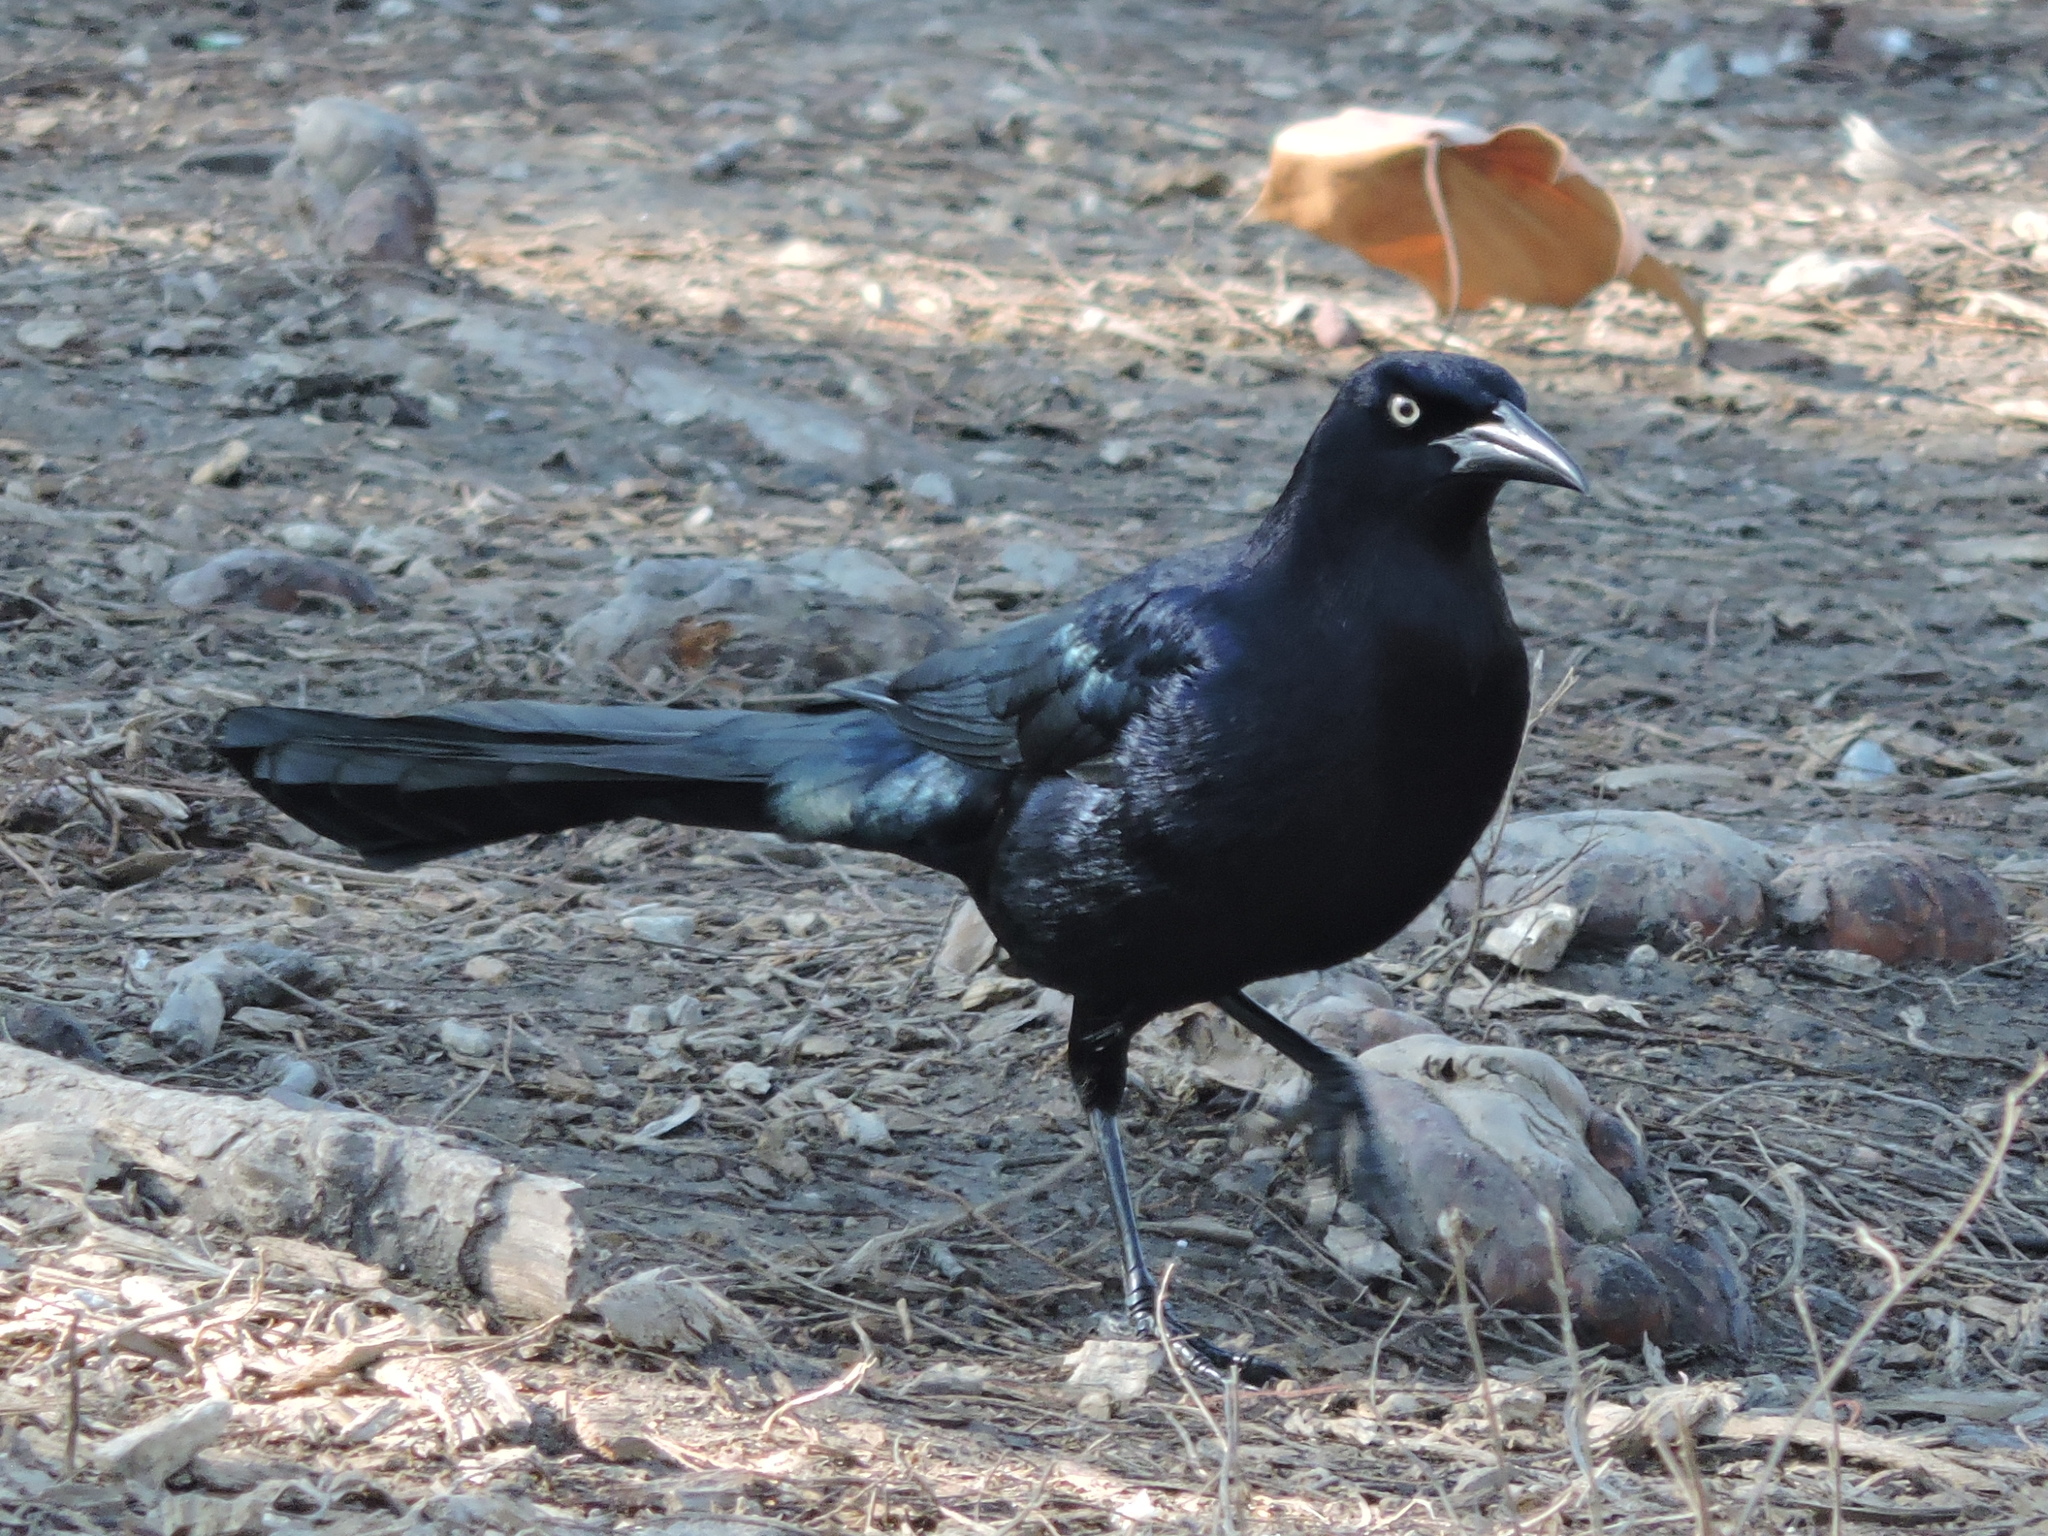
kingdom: Animalia
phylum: Chordata
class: Aves
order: Passeriformes
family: Icteridae
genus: Quiscalus
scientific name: Quiscalus mexicanus
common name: Great-tailed grackle
